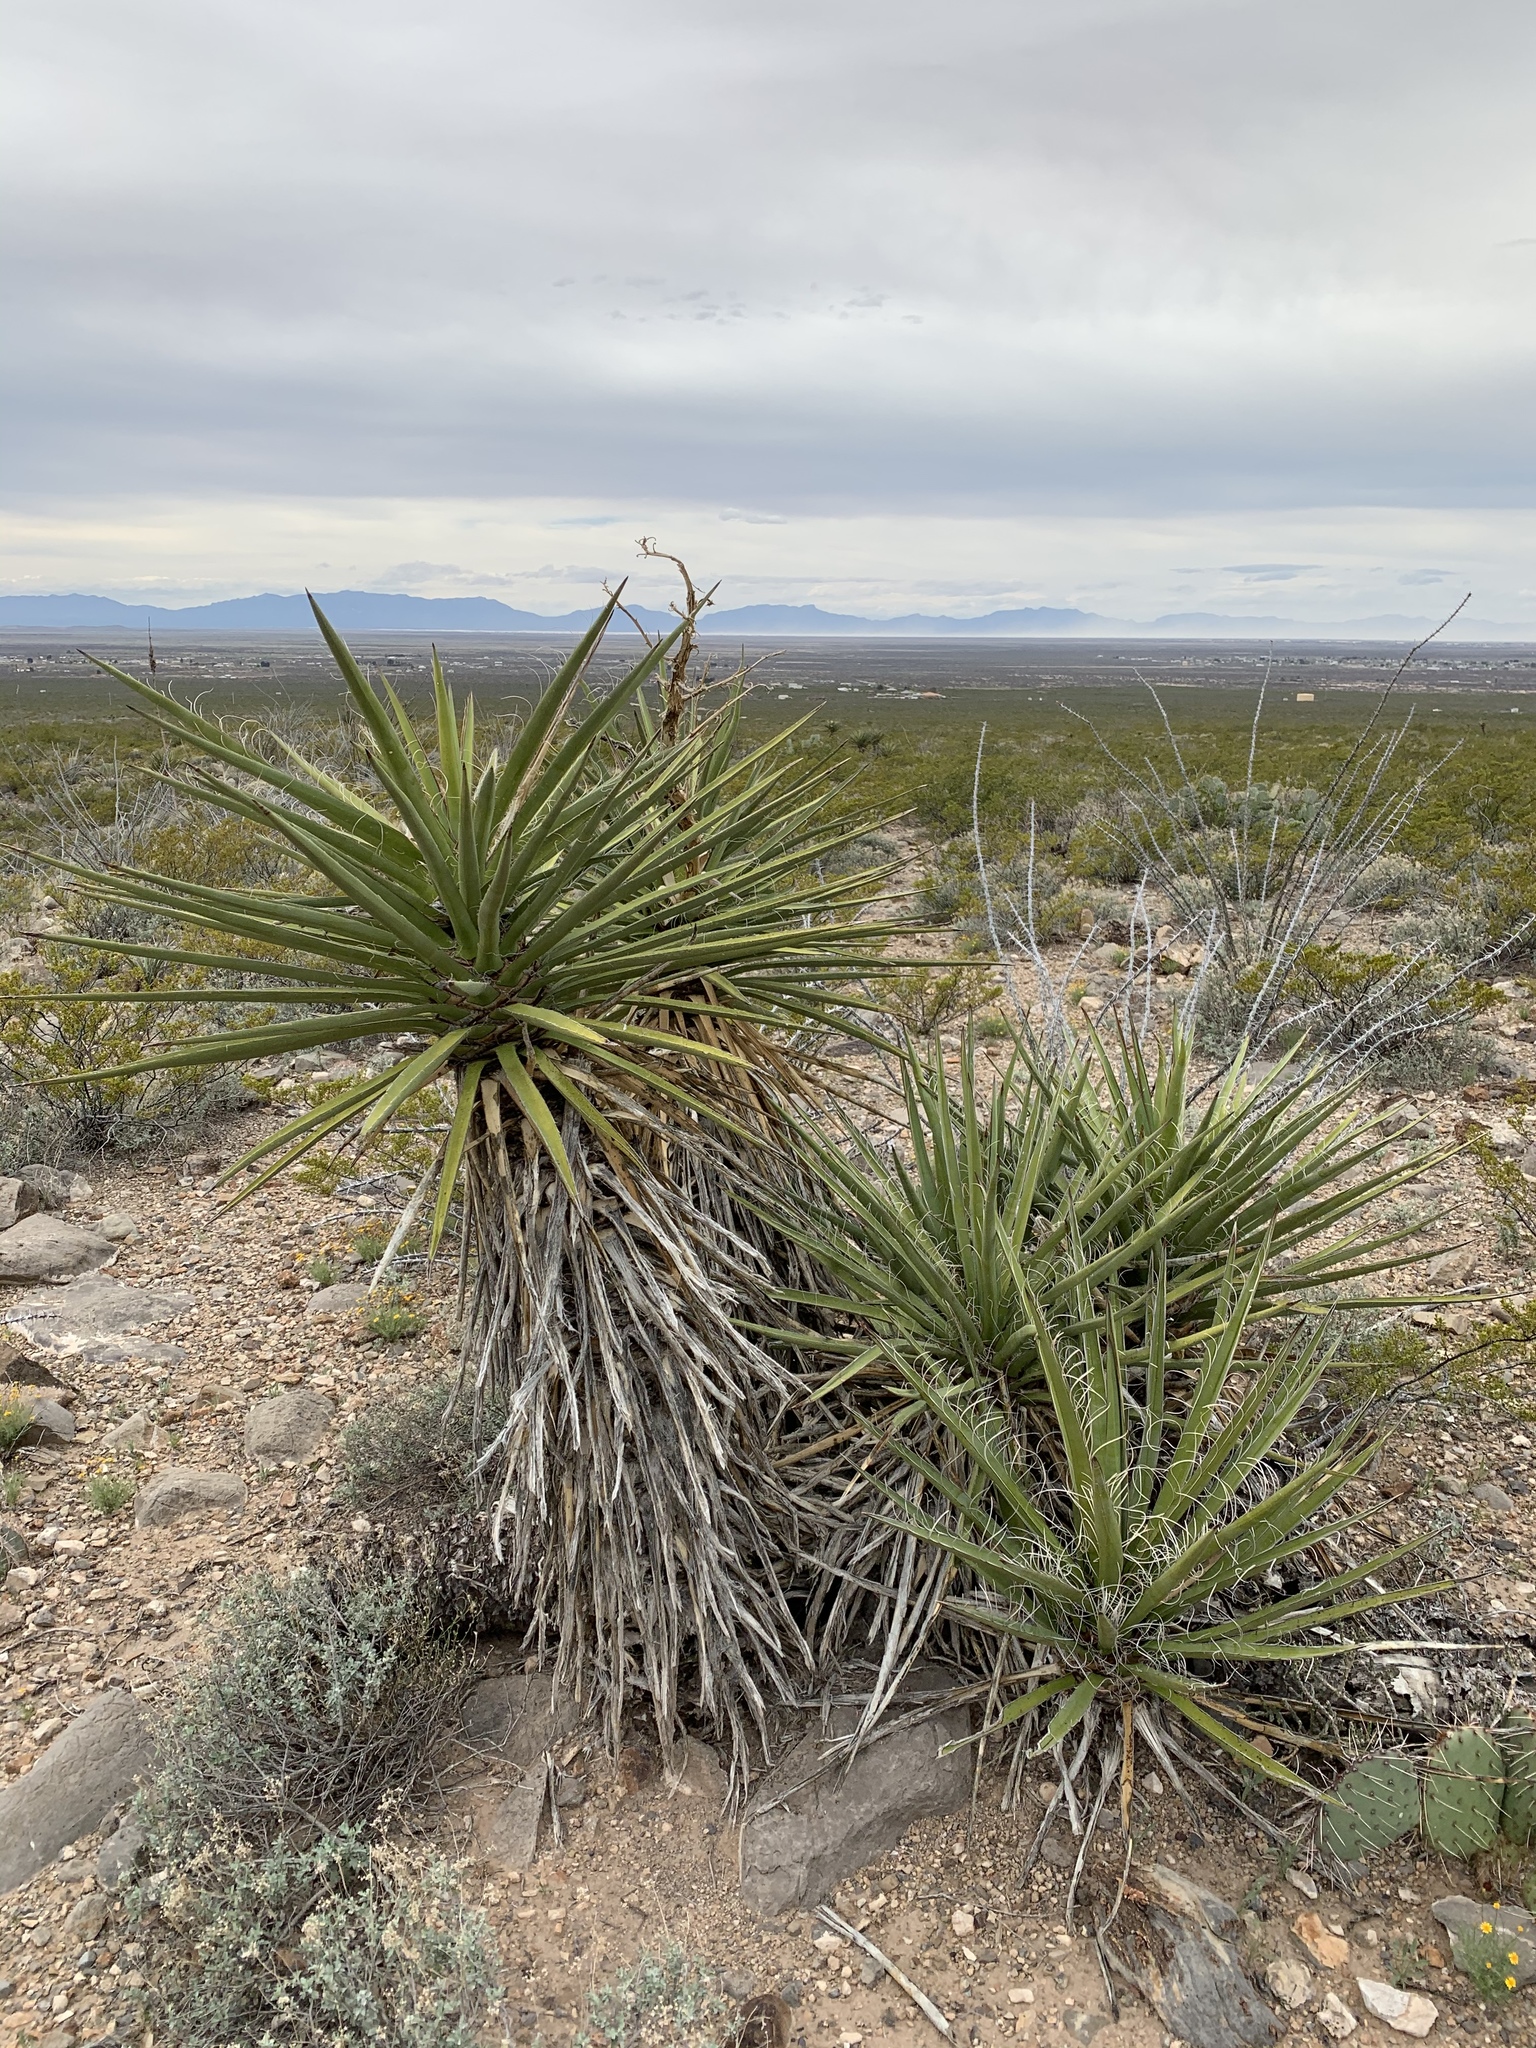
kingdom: Plantae
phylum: Tracheophyta
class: Liliopsida
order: Asparagales
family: Asparagaceae
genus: Yucca
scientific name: Yucca treculiana
